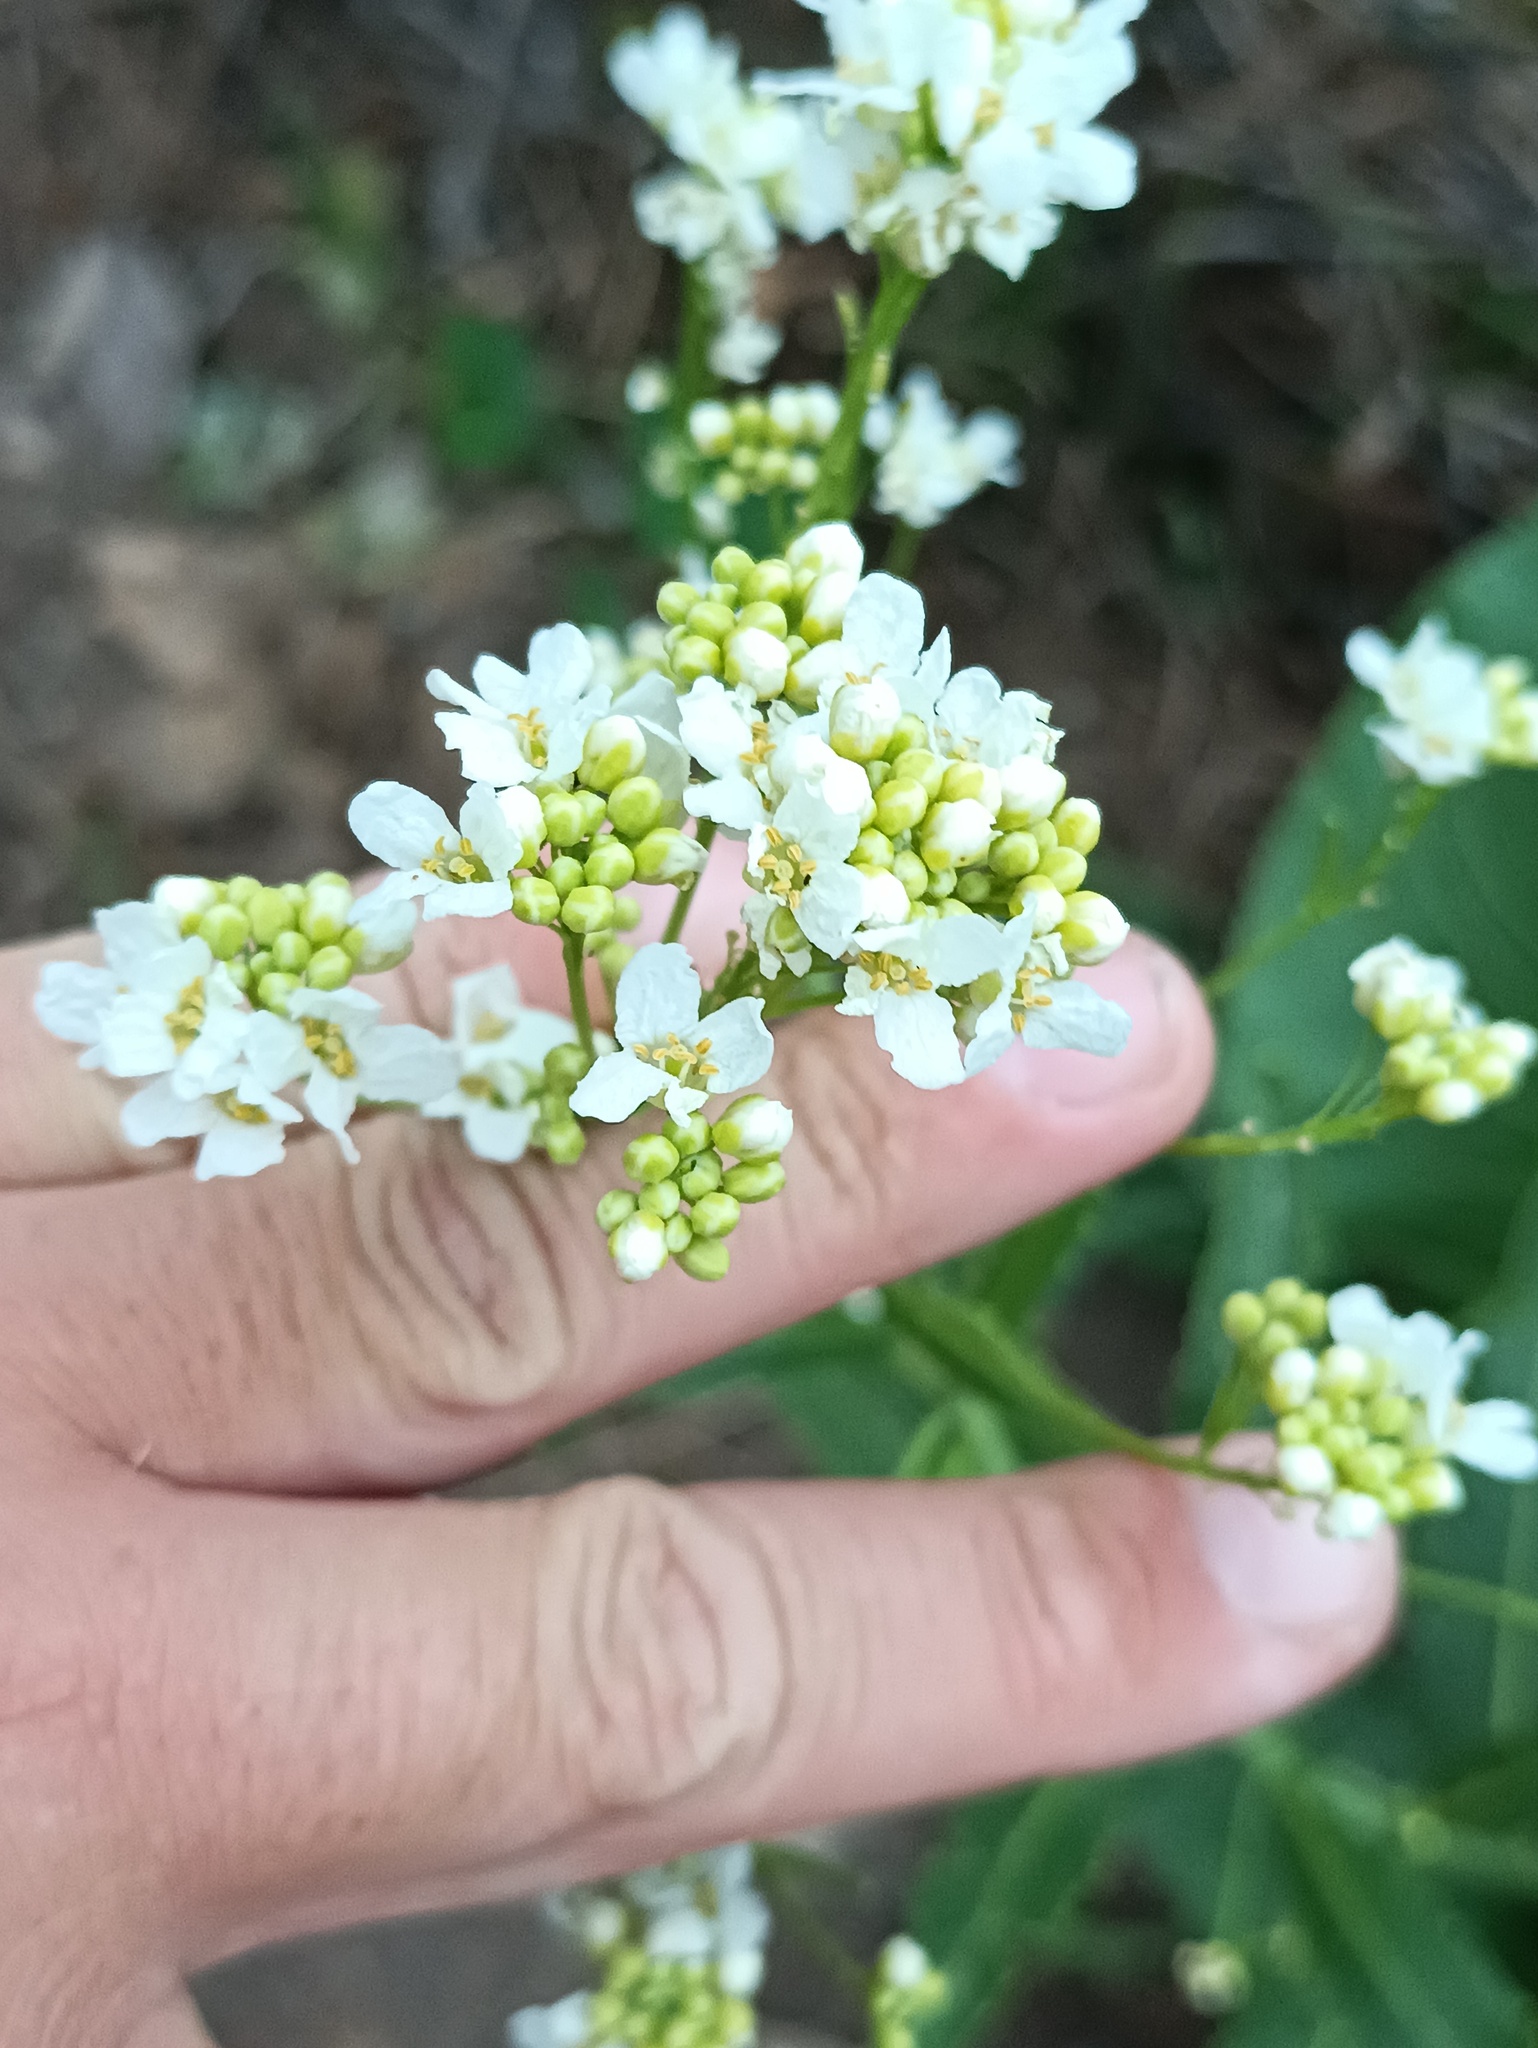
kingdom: Plantae
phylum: Tracheophyta
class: Magnoliopsida
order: Brassicales
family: Brassicaceae
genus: Armoracia
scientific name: Armoracia rusticana
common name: Horseradish
